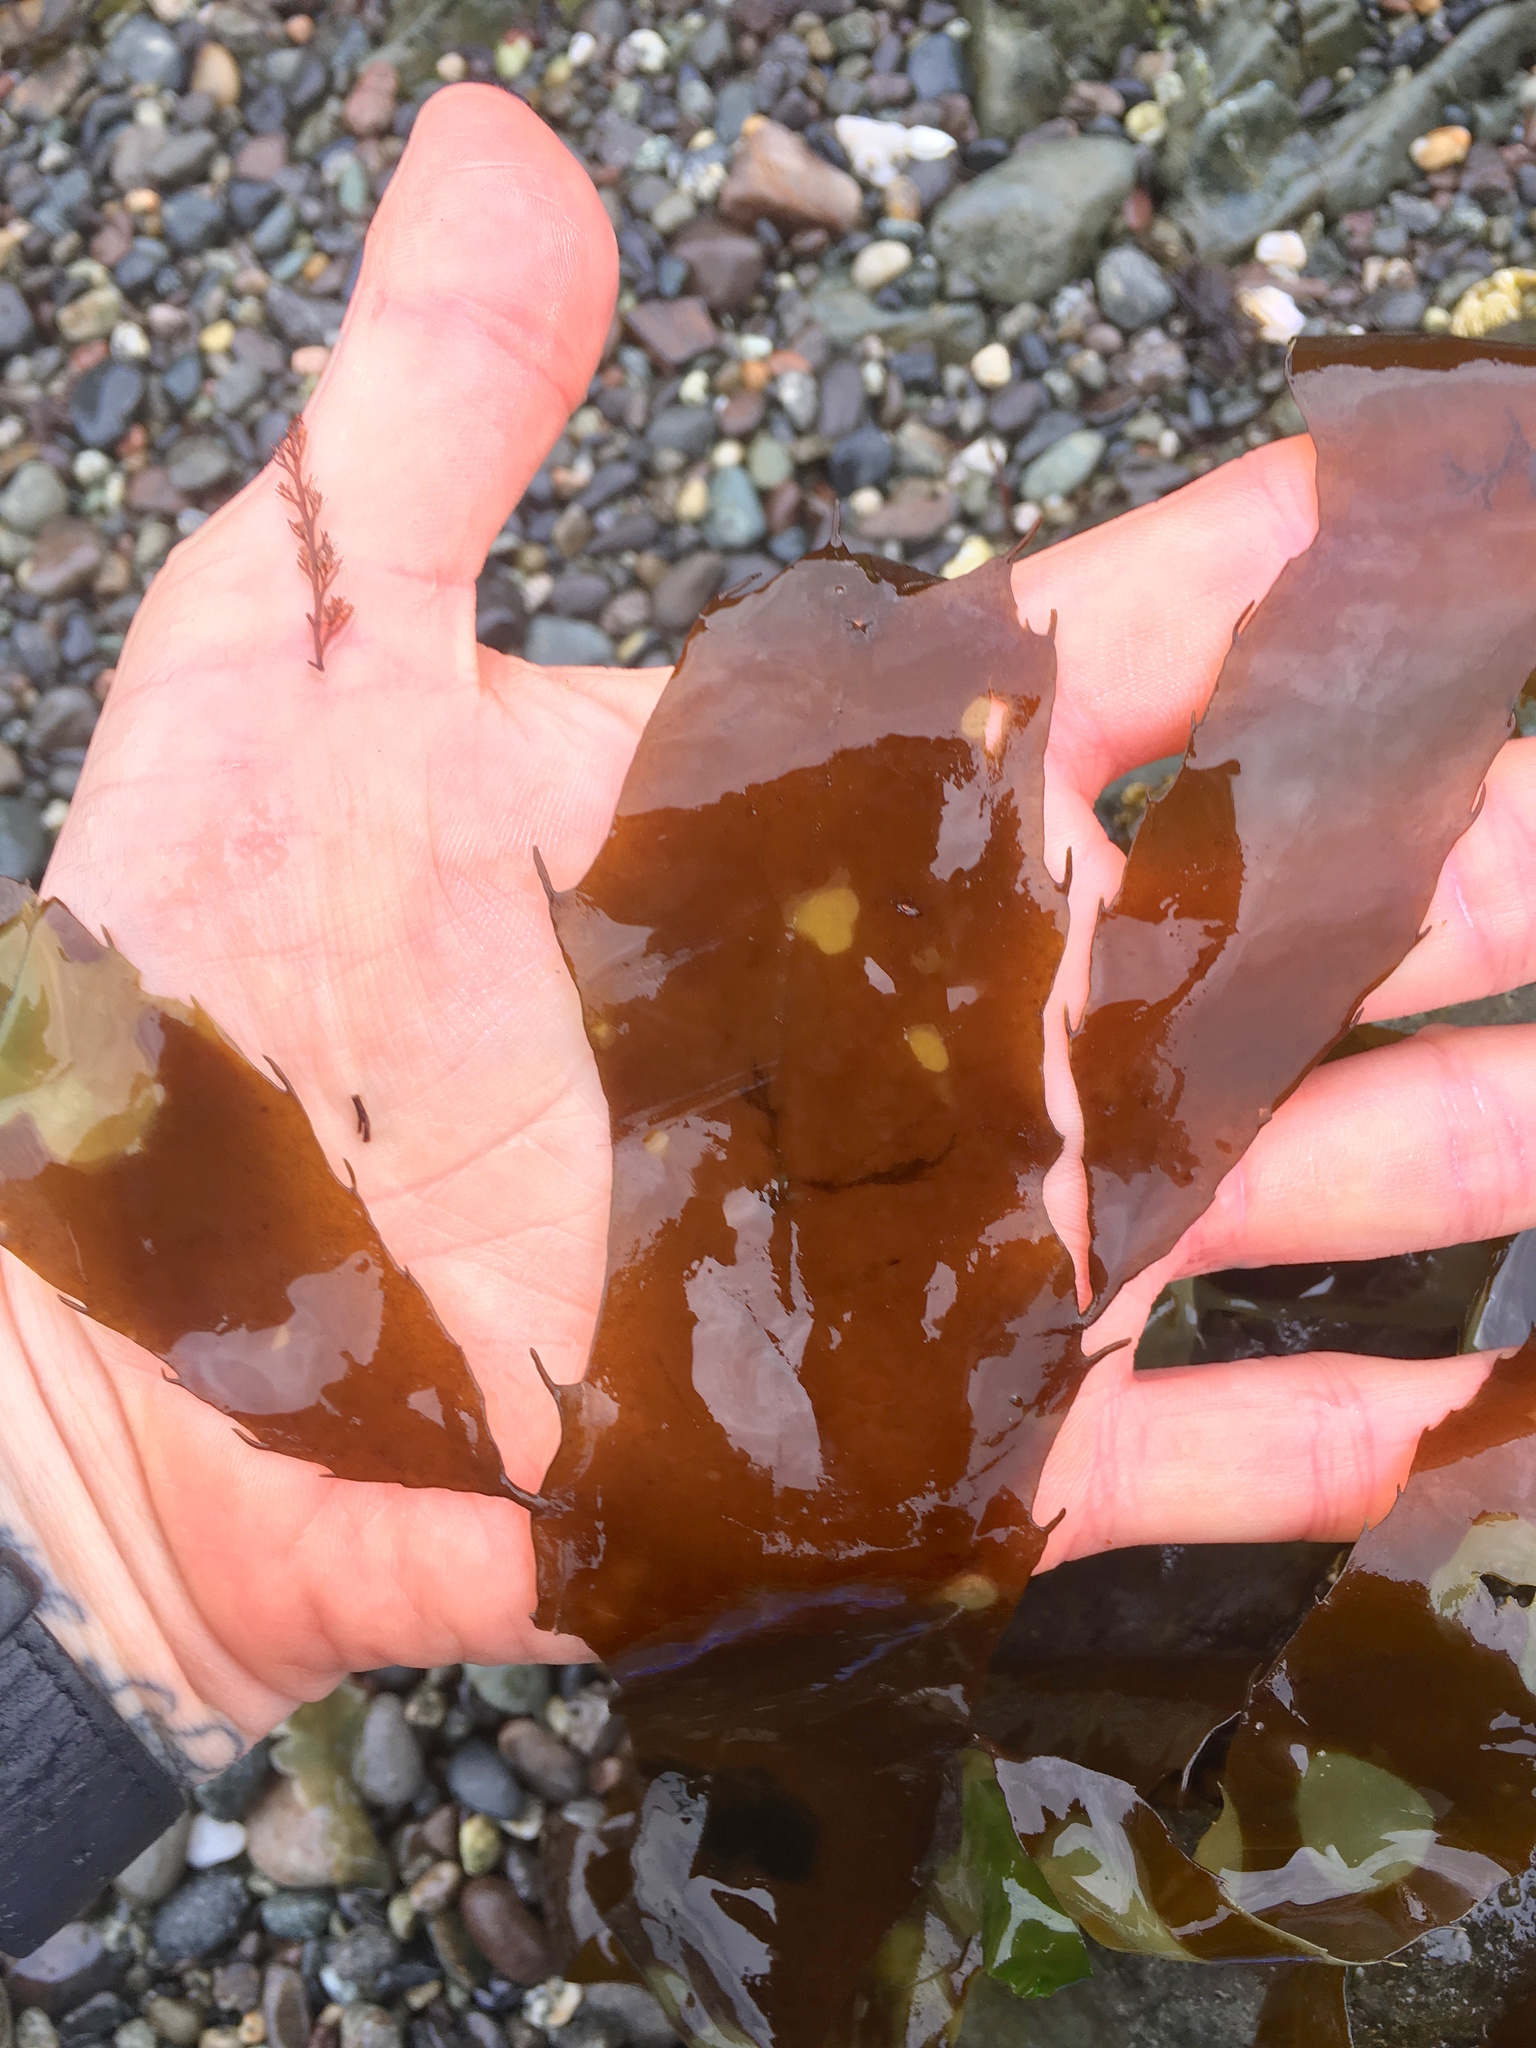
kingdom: Chromista
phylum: Ochrophyta
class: Phaeophyceae
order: Desmarestiales
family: Desmarestiaceae
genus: Desmarestia
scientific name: Desmarestia ligulata
